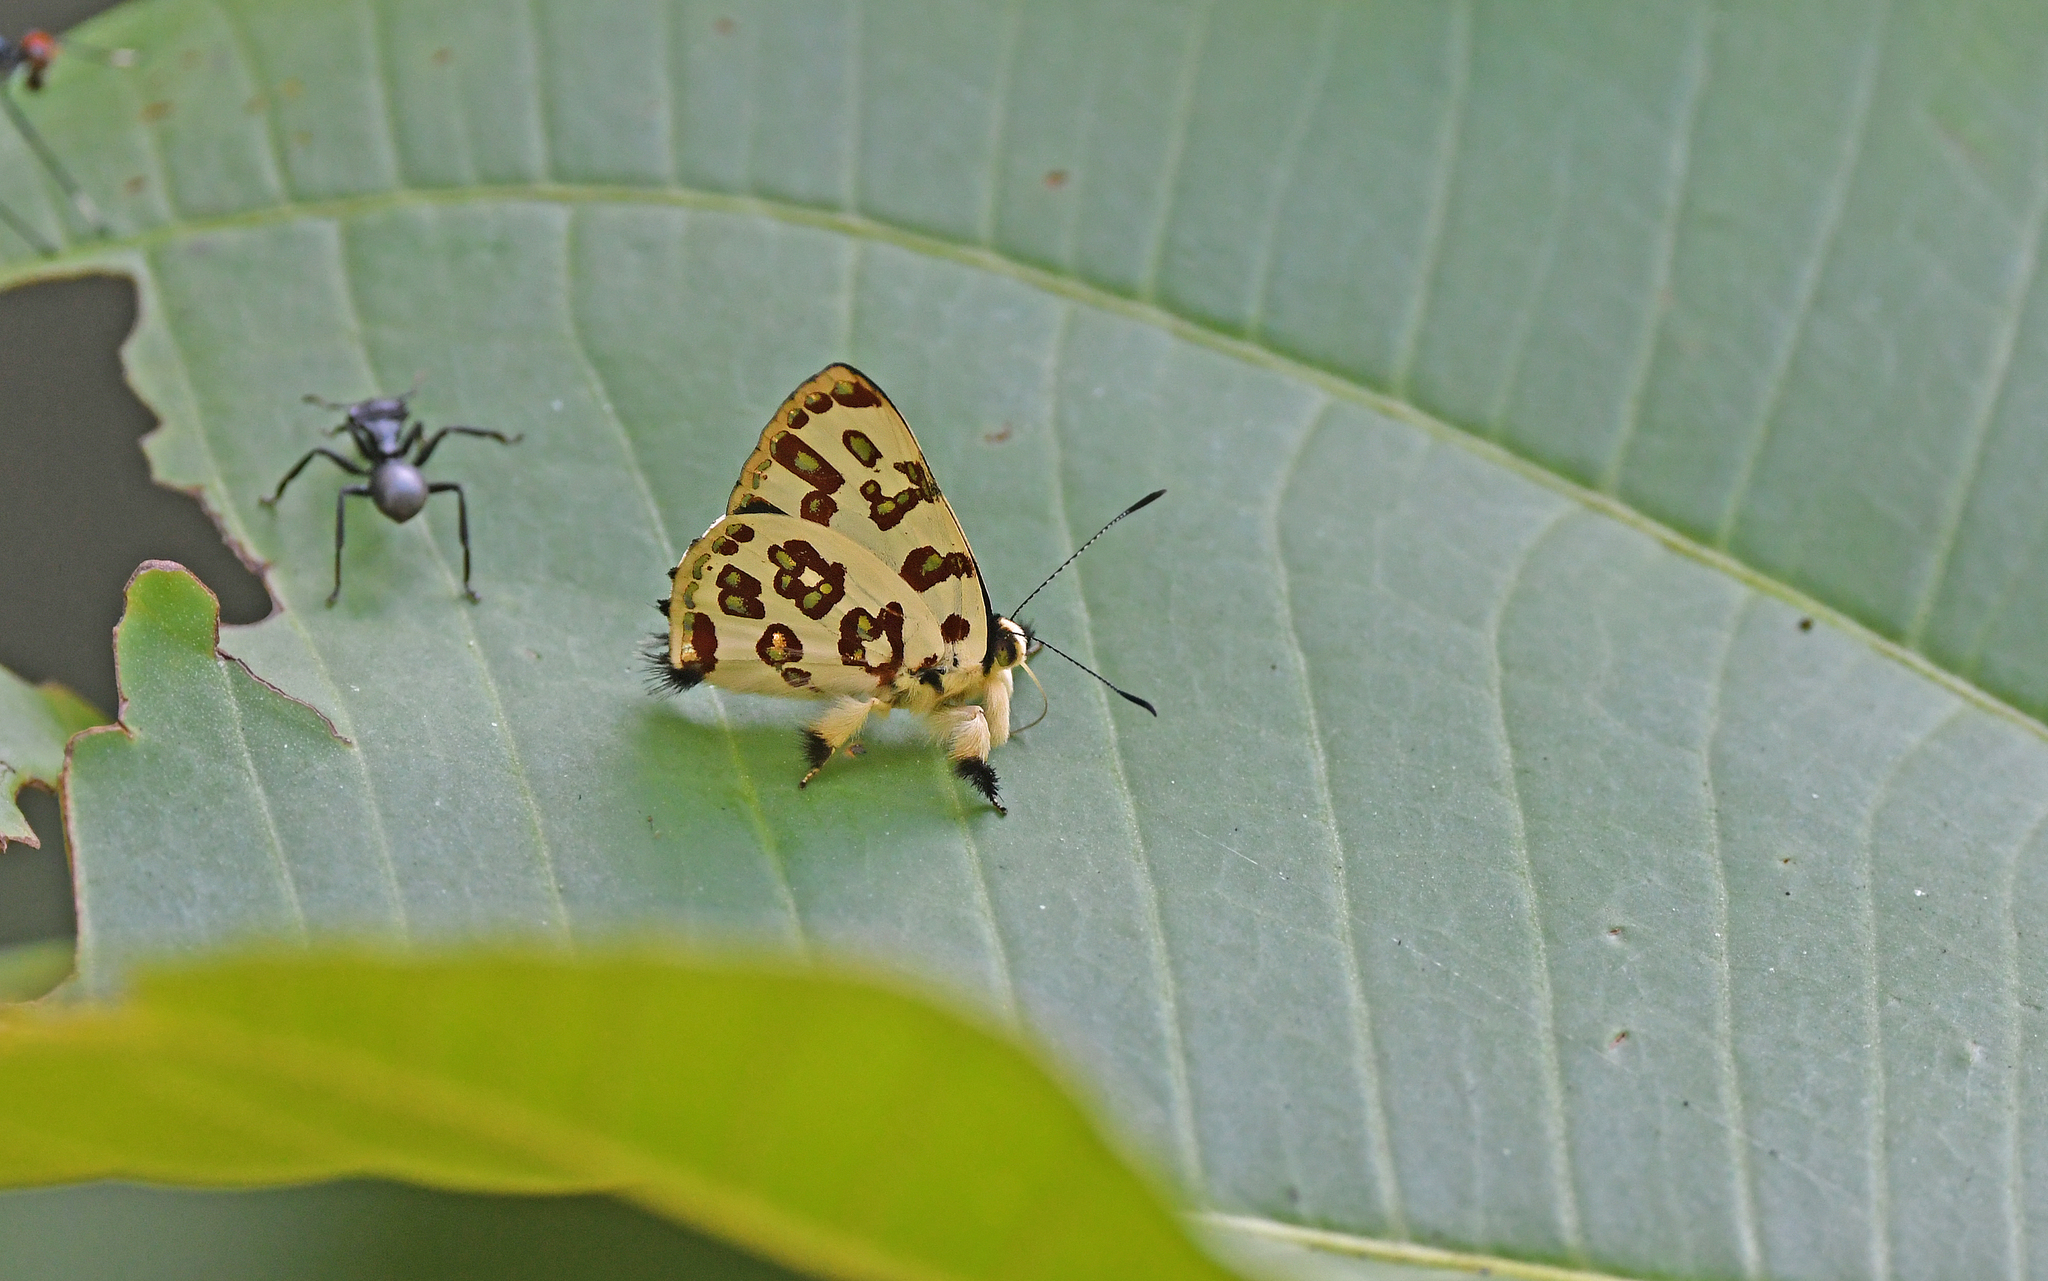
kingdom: Animalia
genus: Anteros
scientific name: Anteros bracteatus
